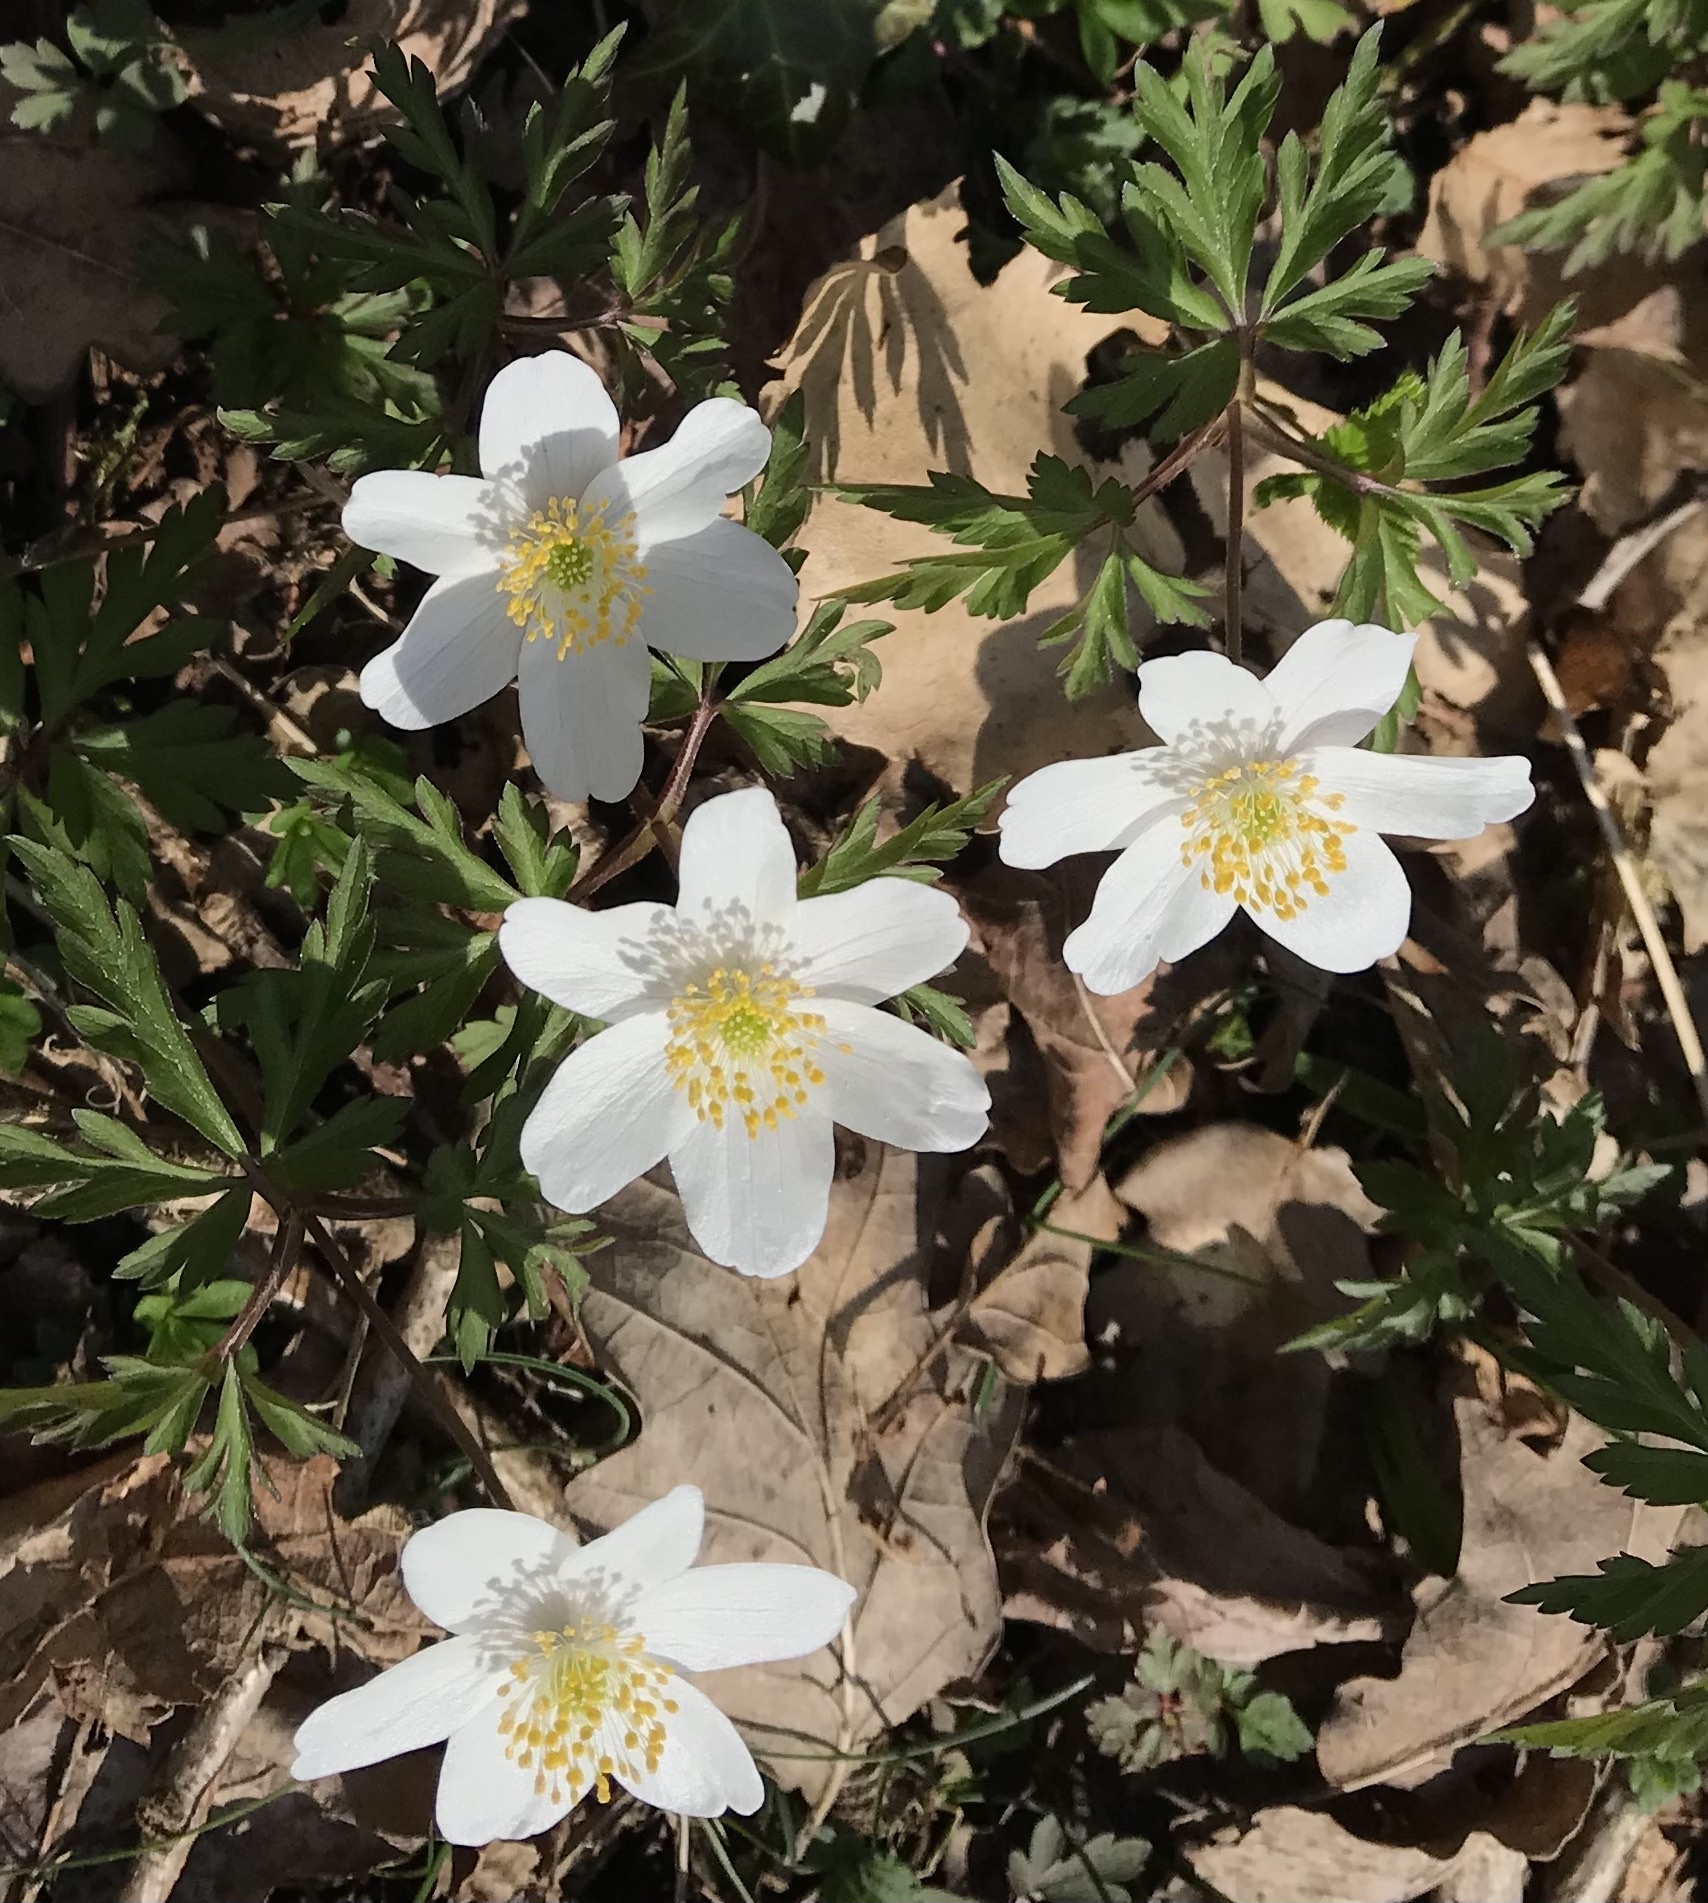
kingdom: Plantae
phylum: Tracheophyta
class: Magnoliopsida
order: Ranunculales
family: Ranunculaceae
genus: Anemone
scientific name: Anemone nemorosa
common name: Wood anemone
